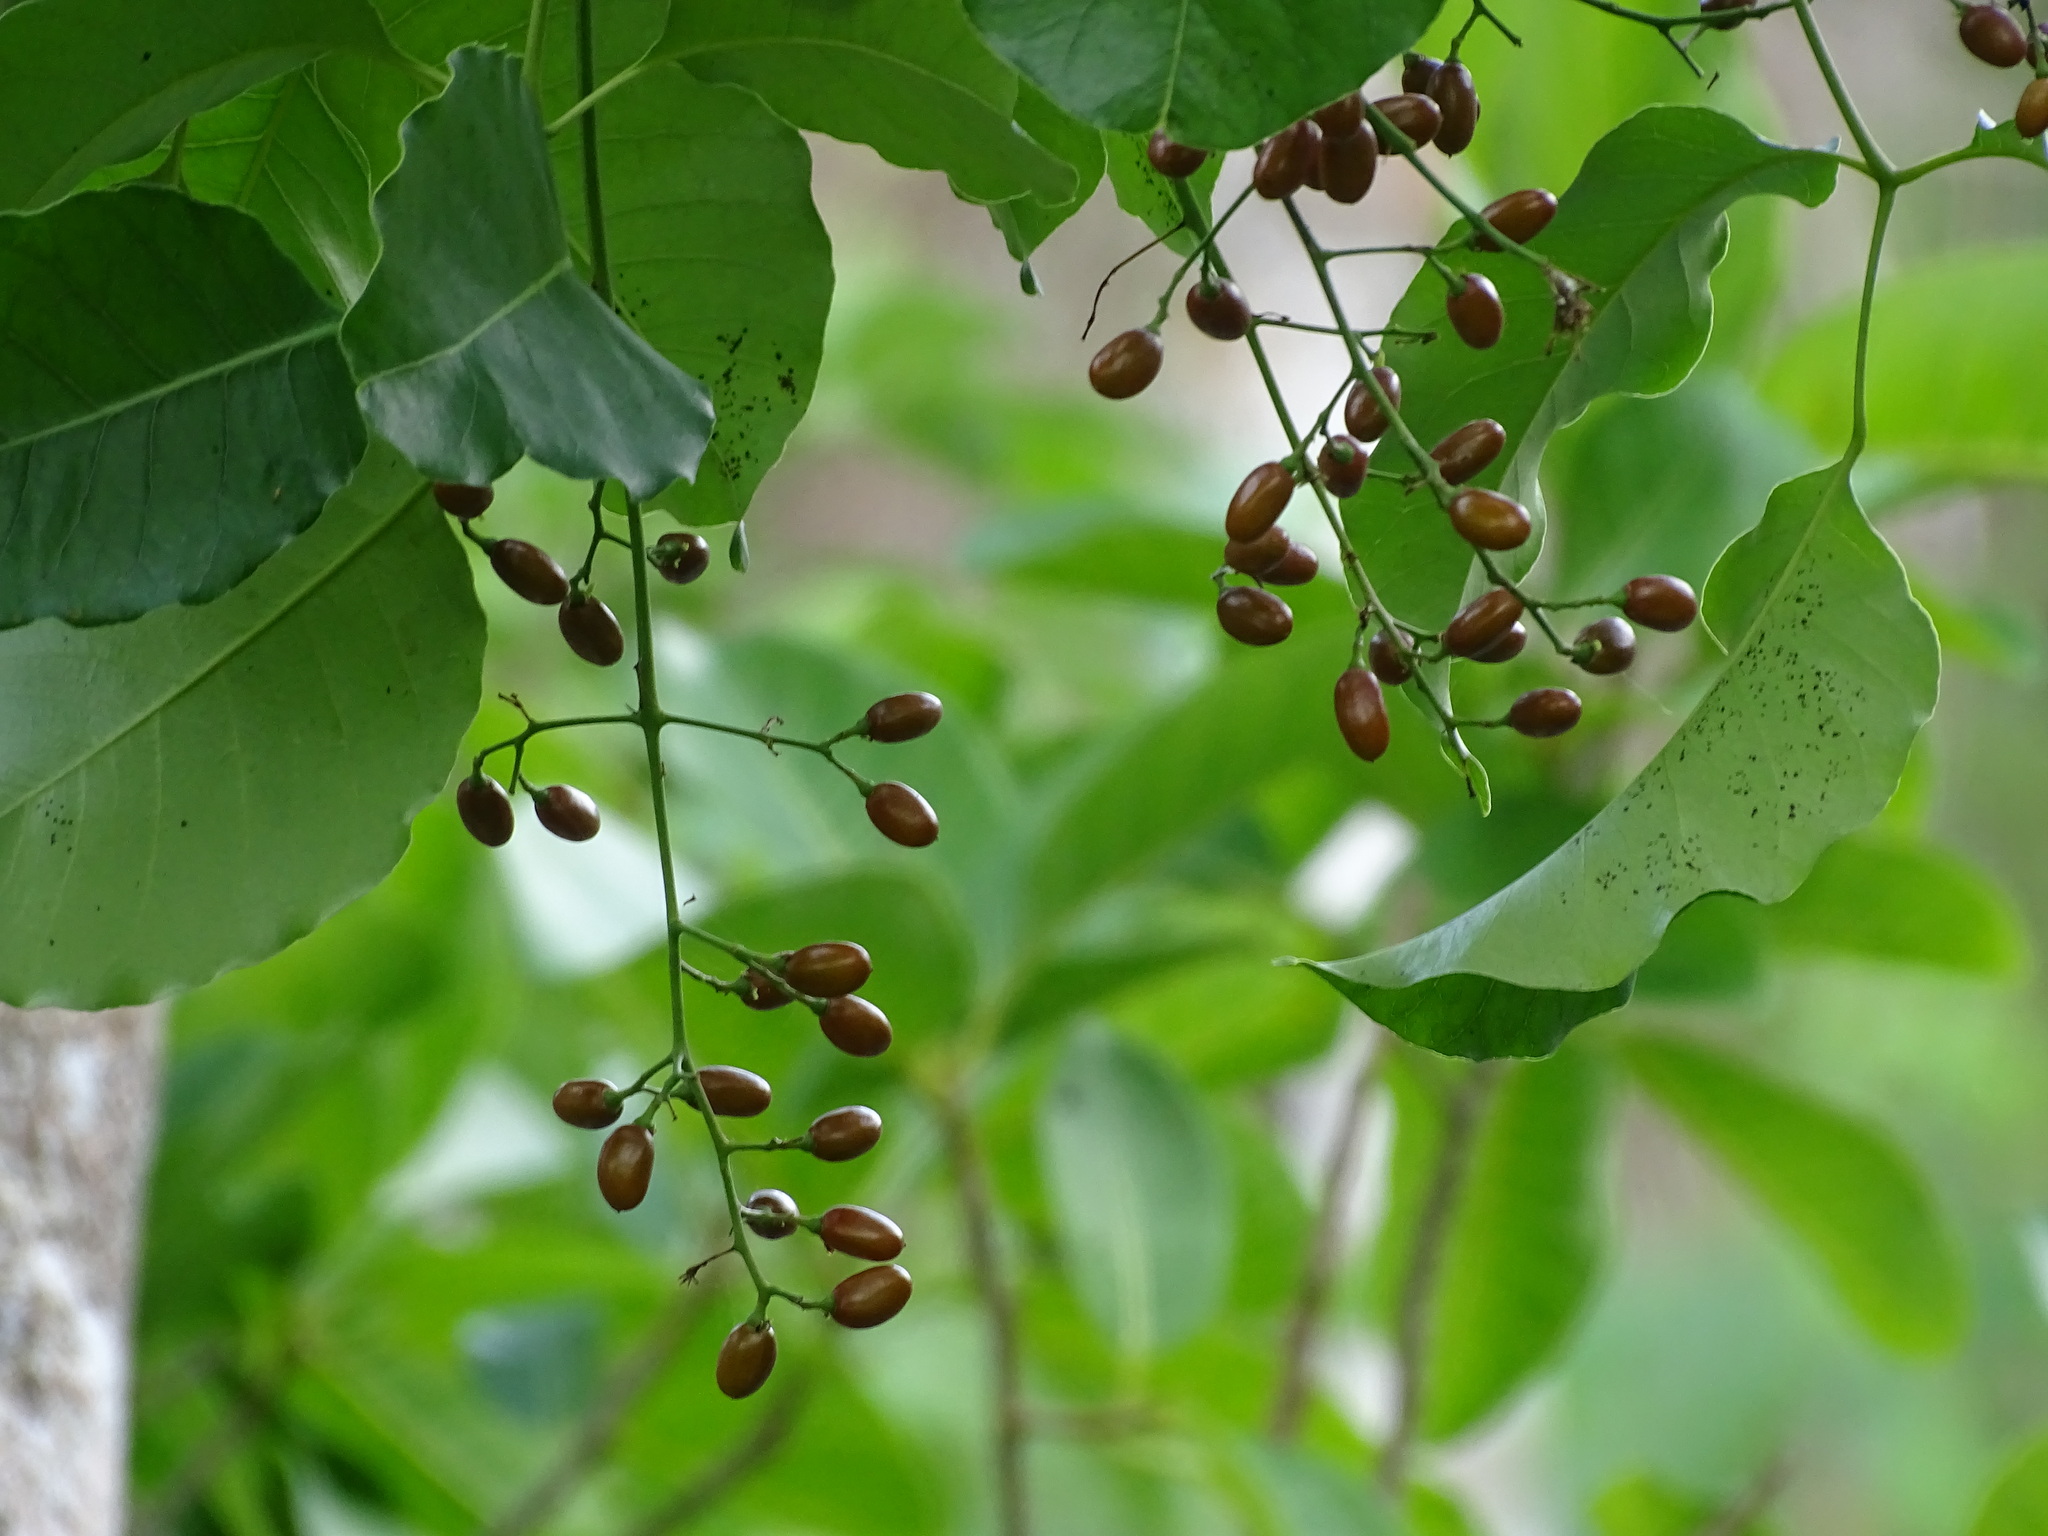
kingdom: Plantae
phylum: Tracheophyta
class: Magnoliopsida
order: Sapindales
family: Anacardiaceae
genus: Metopium
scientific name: Metopium brownei
